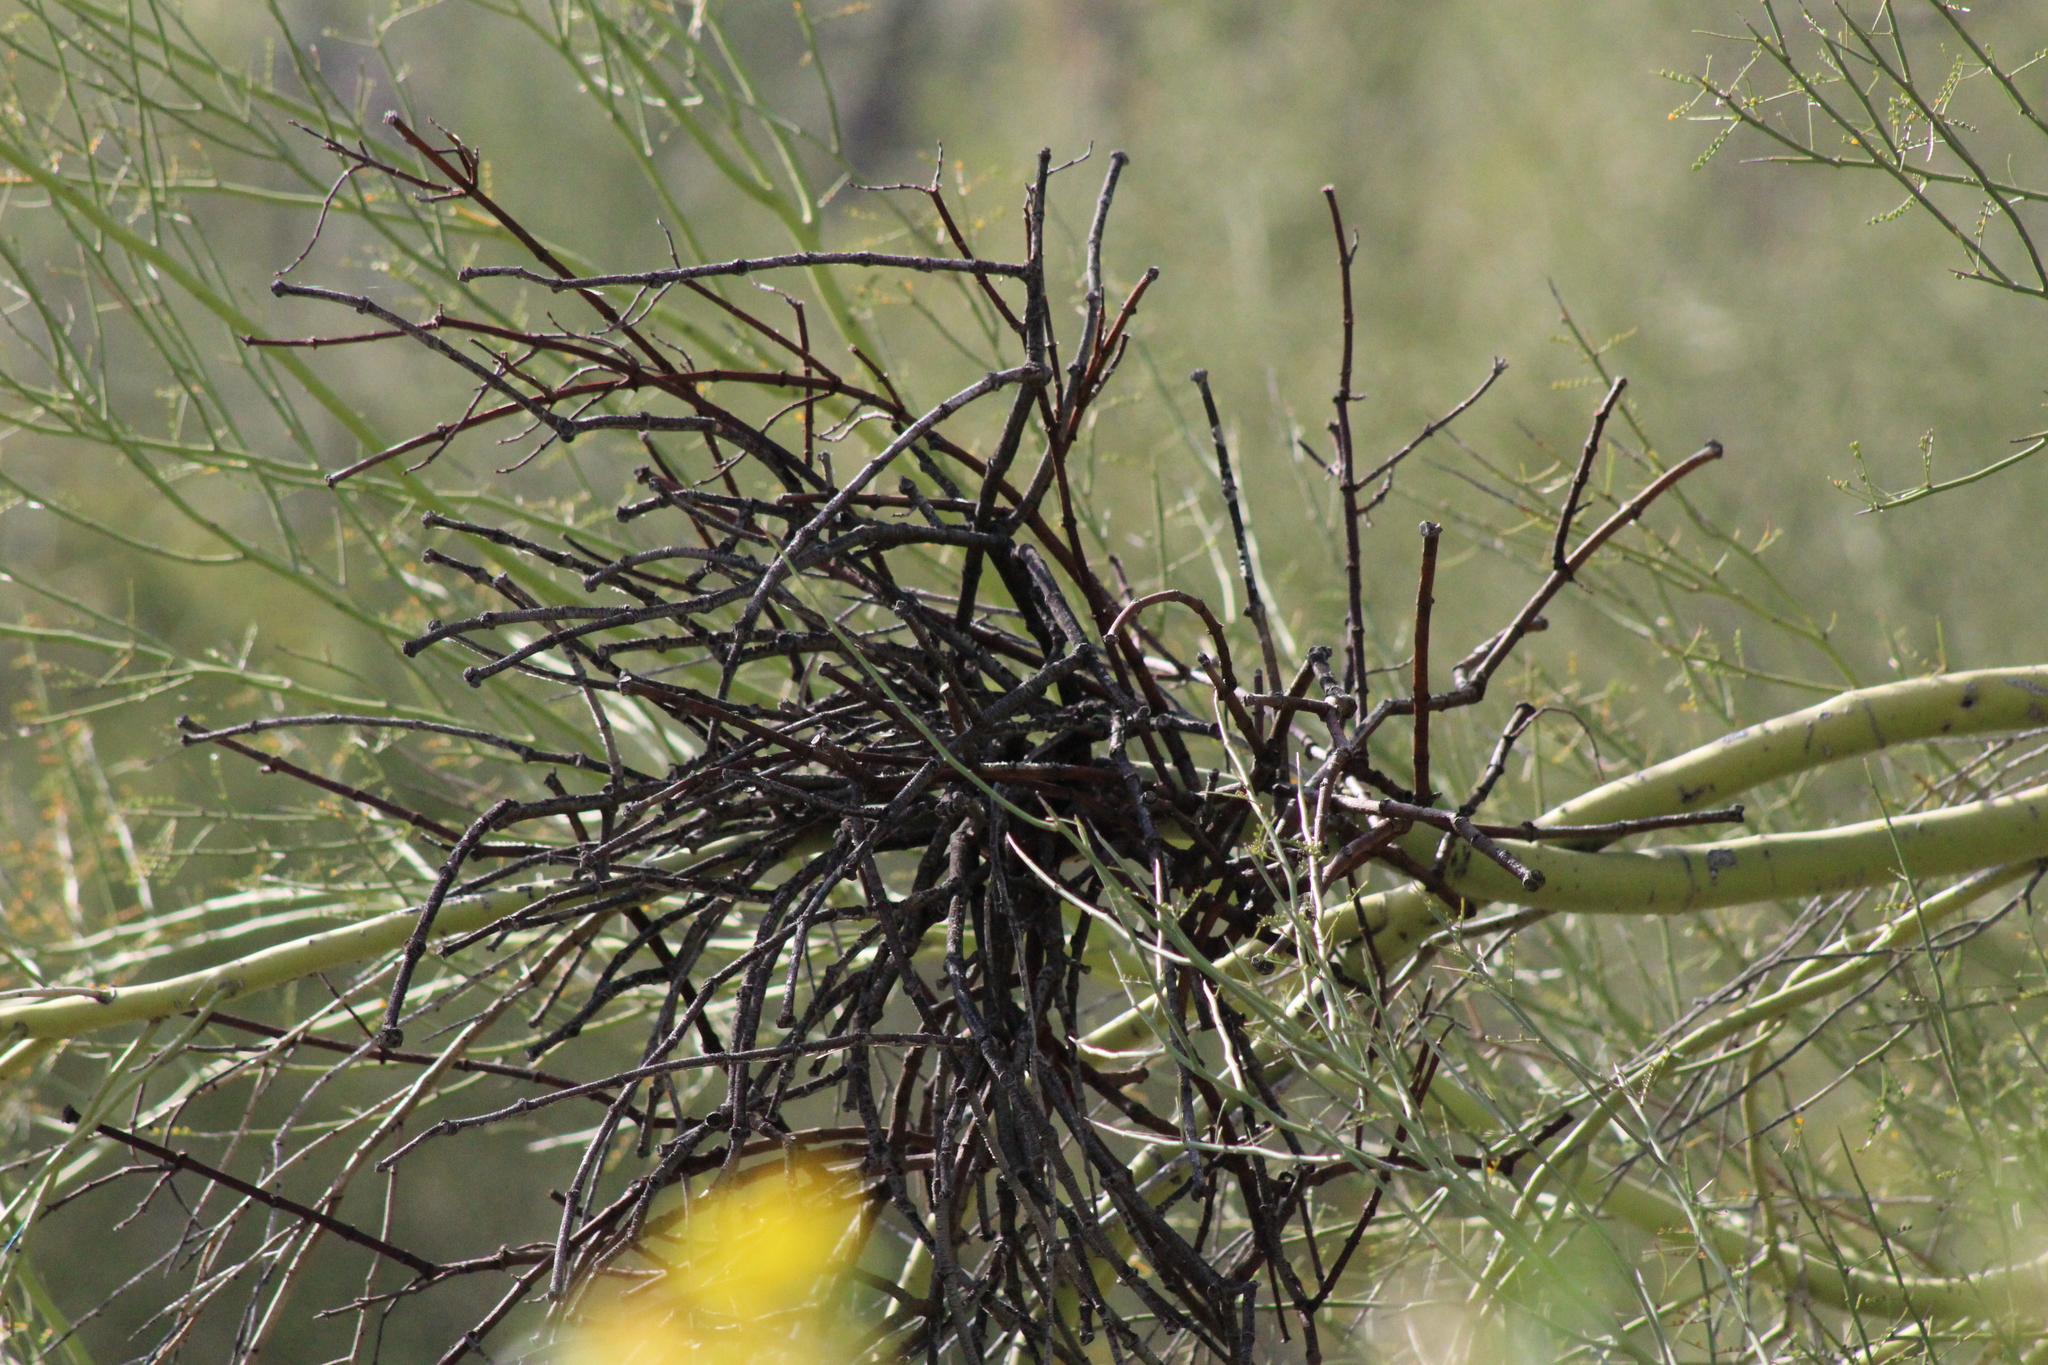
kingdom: Plantae
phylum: Tracheophyta
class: Magnoliopsida
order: Santalales
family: Viscaceae
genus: Phoradendron
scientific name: Phoradendron californicum
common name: Acacia mistletoe
